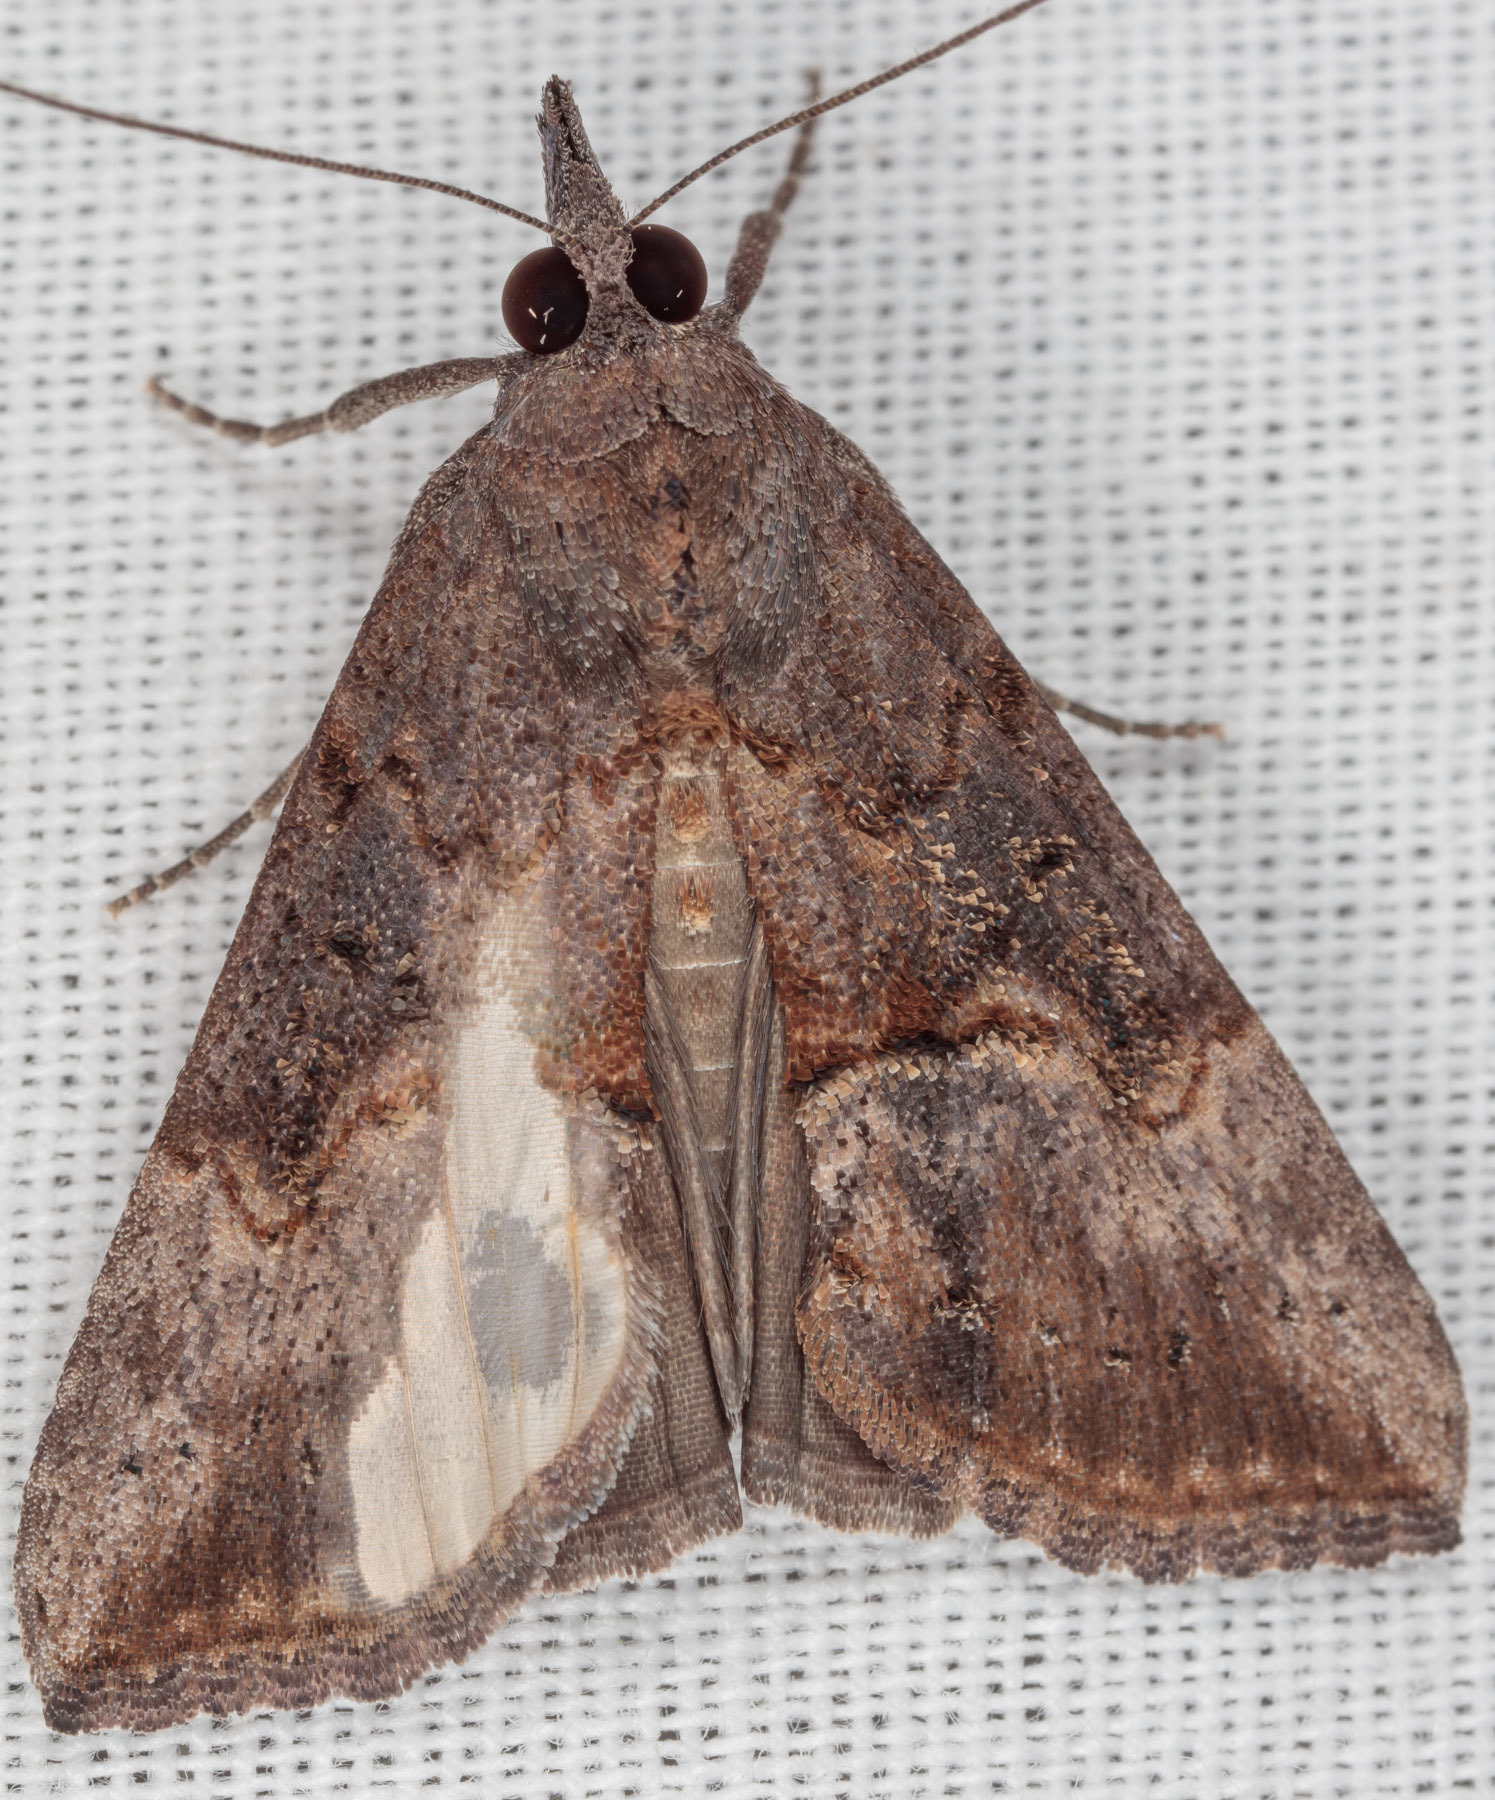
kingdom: Animalia
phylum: Arthropoda
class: Insecta
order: Lepidoptera
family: Erebidae
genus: Hypena
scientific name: Hypena scabra
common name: Green cloverworm
